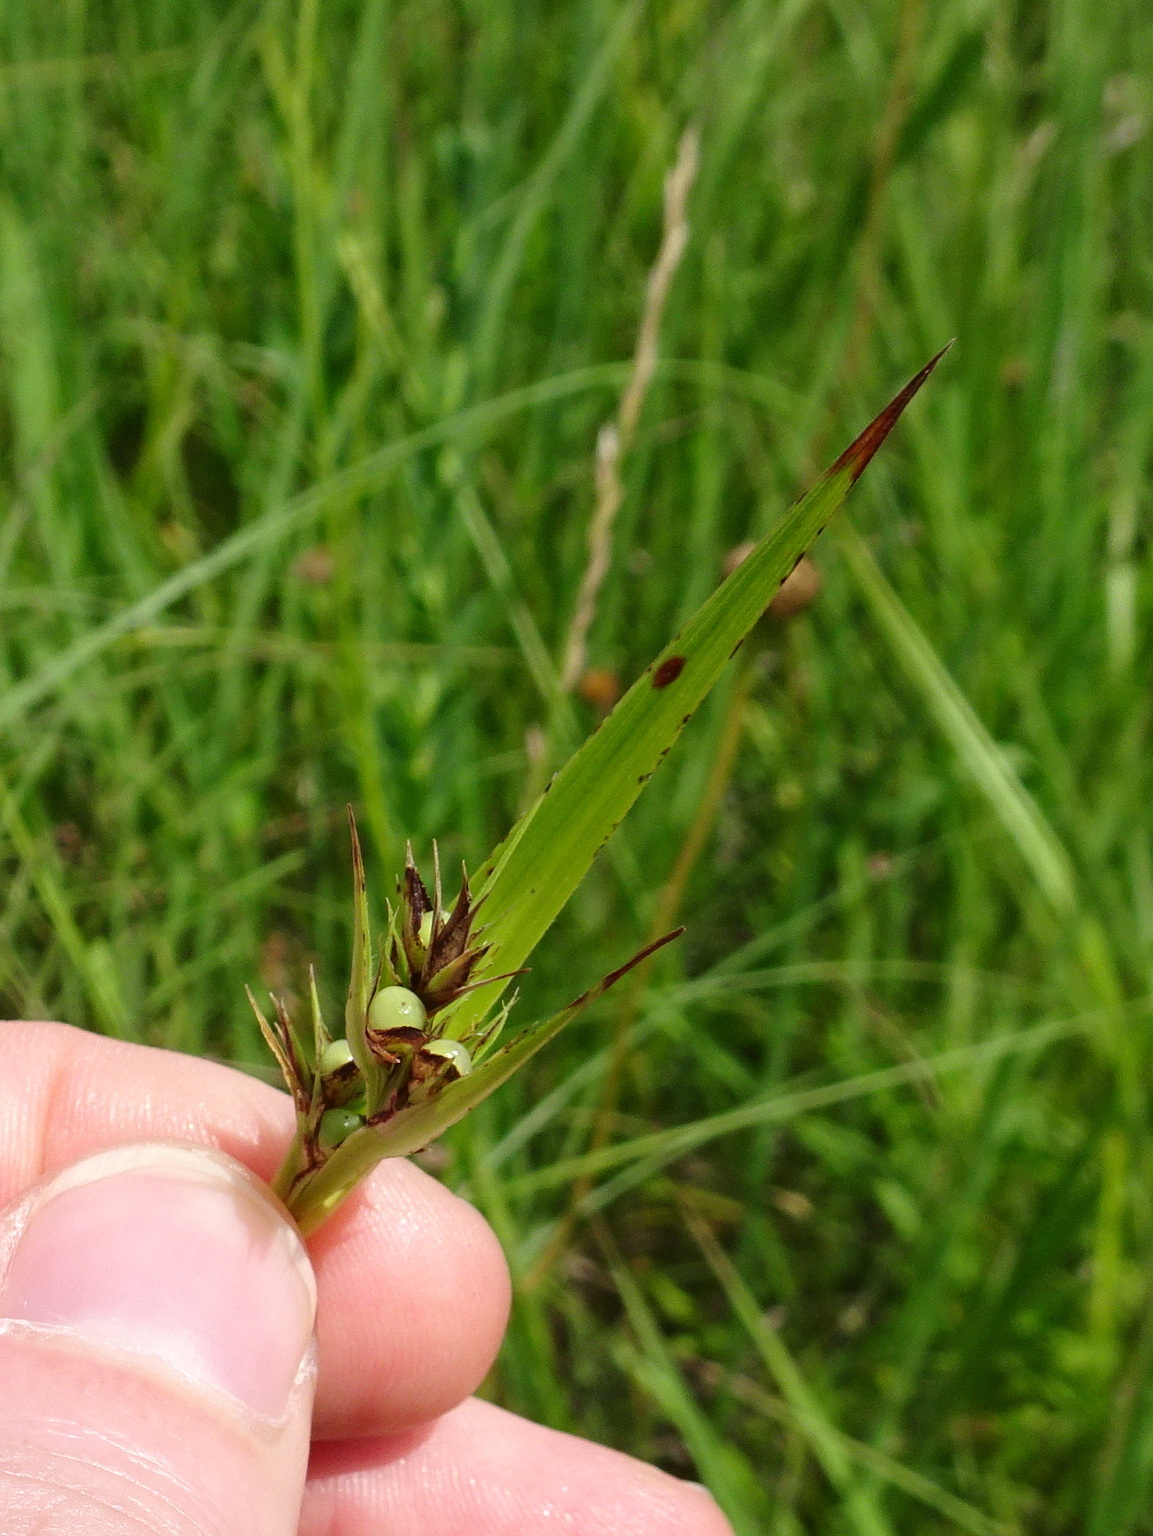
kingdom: Plantae
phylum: Tracheophyta
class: Liliopsida
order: Poales
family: Cyperaceae
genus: Scleria
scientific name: Scleria triglomerata
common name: Whip nutrush
